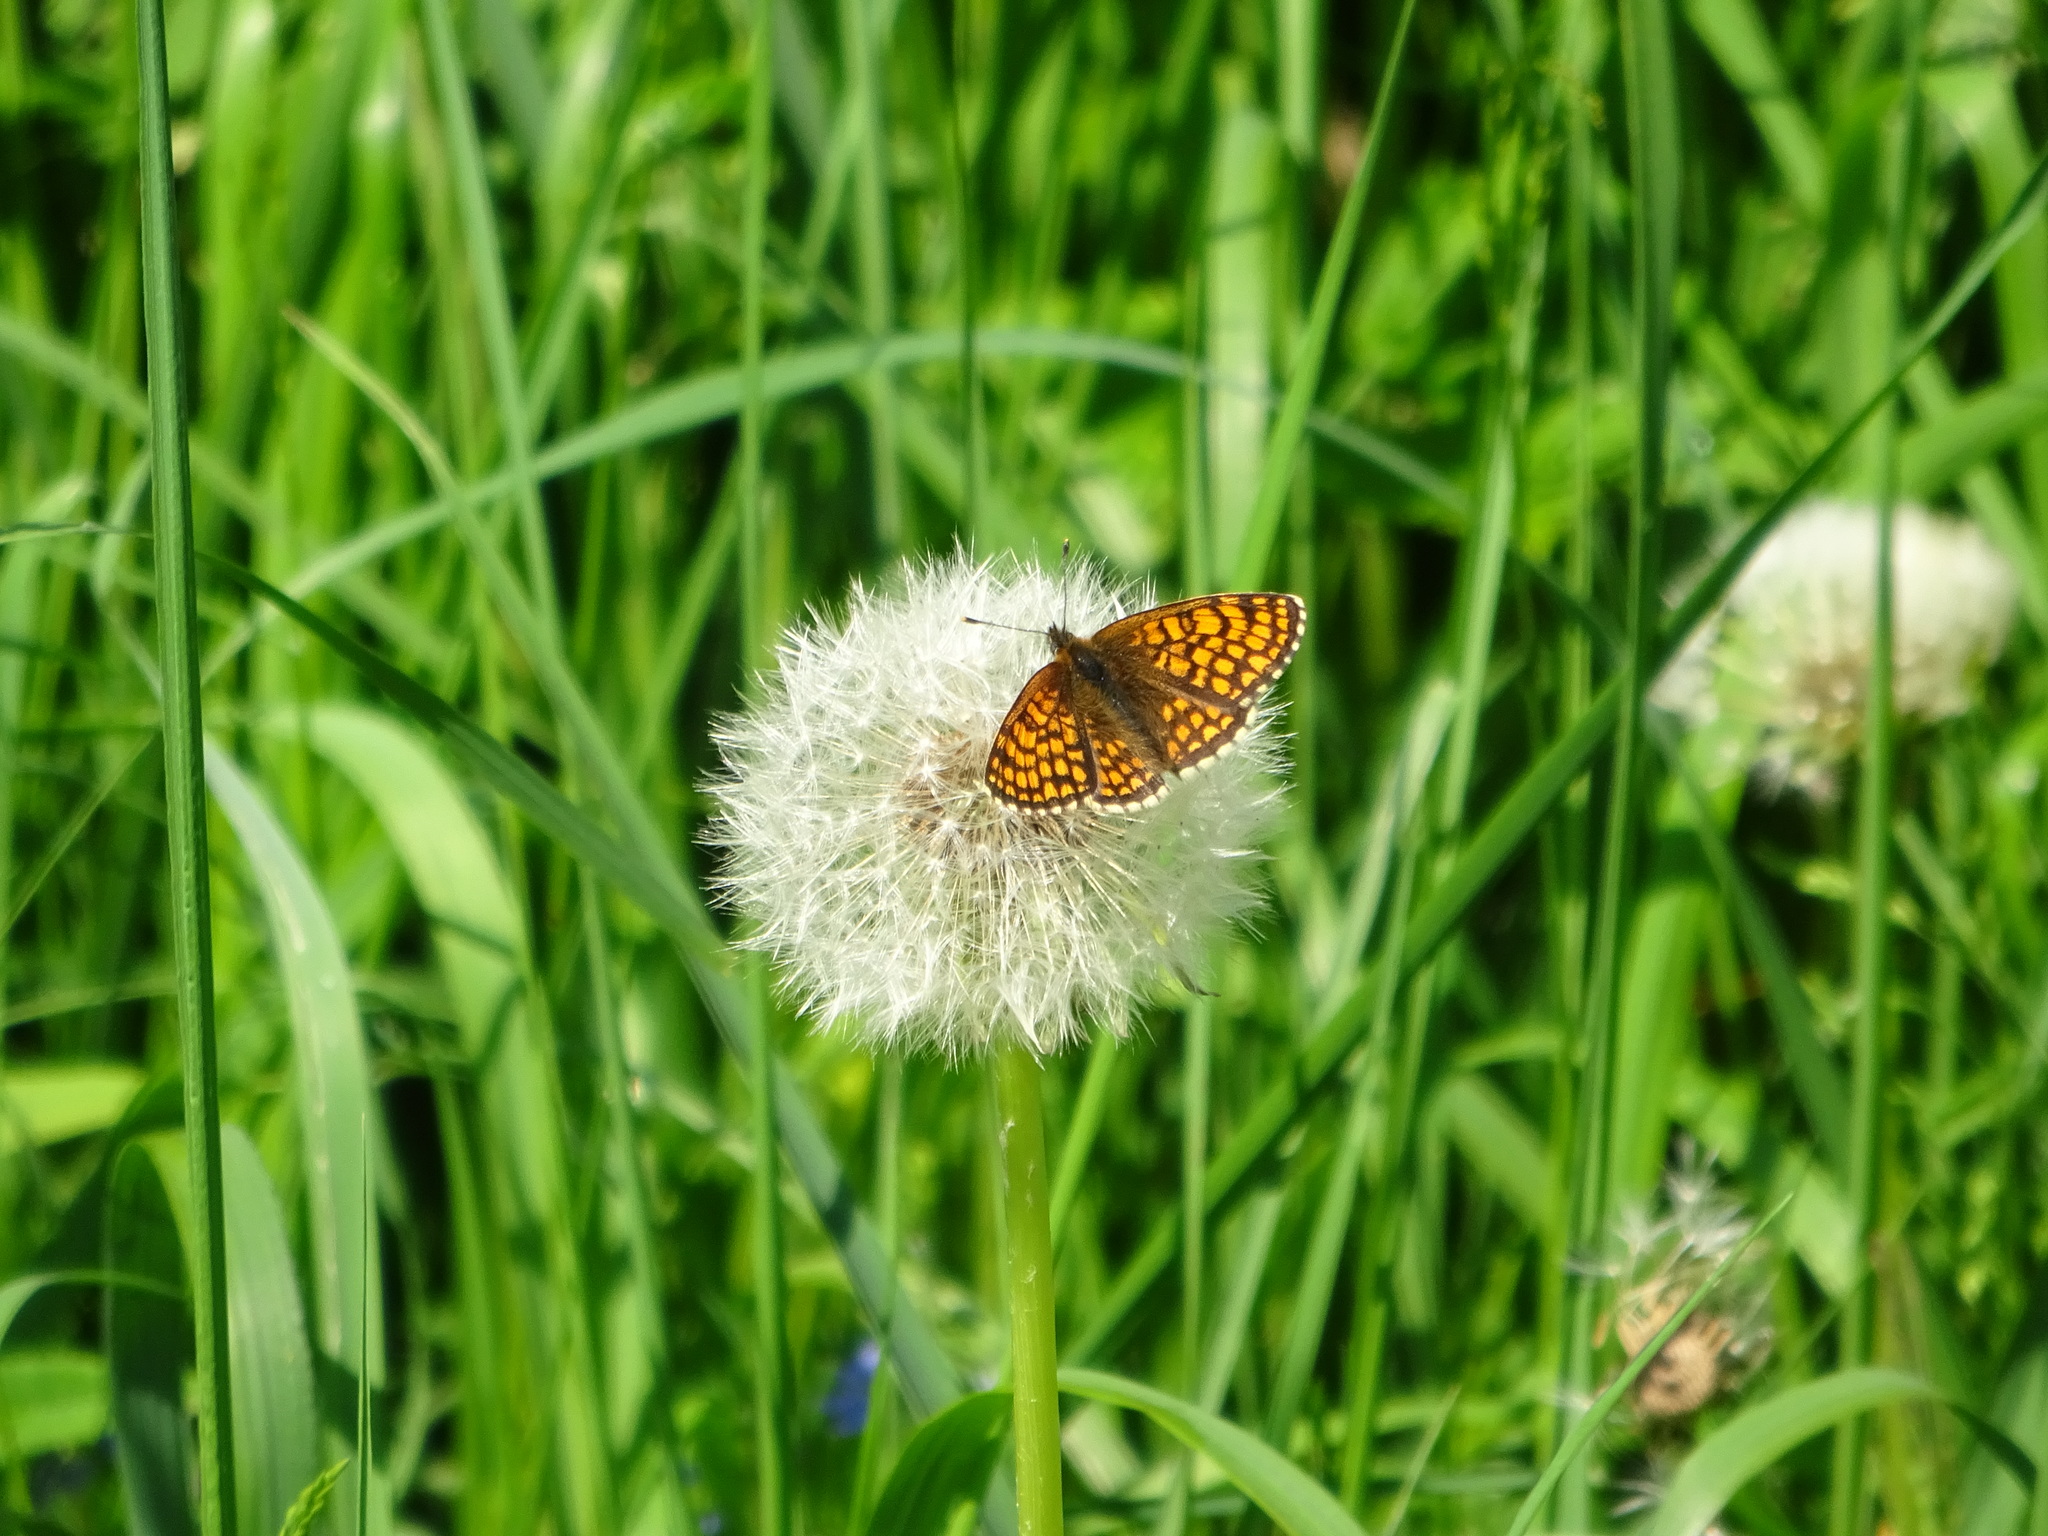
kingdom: Animalia
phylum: Arthropoda
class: Insecta
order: Lepidoptera
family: Nymphalidae
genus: Melitaea
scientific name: Melitaea athalia
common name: Heath fritillary
